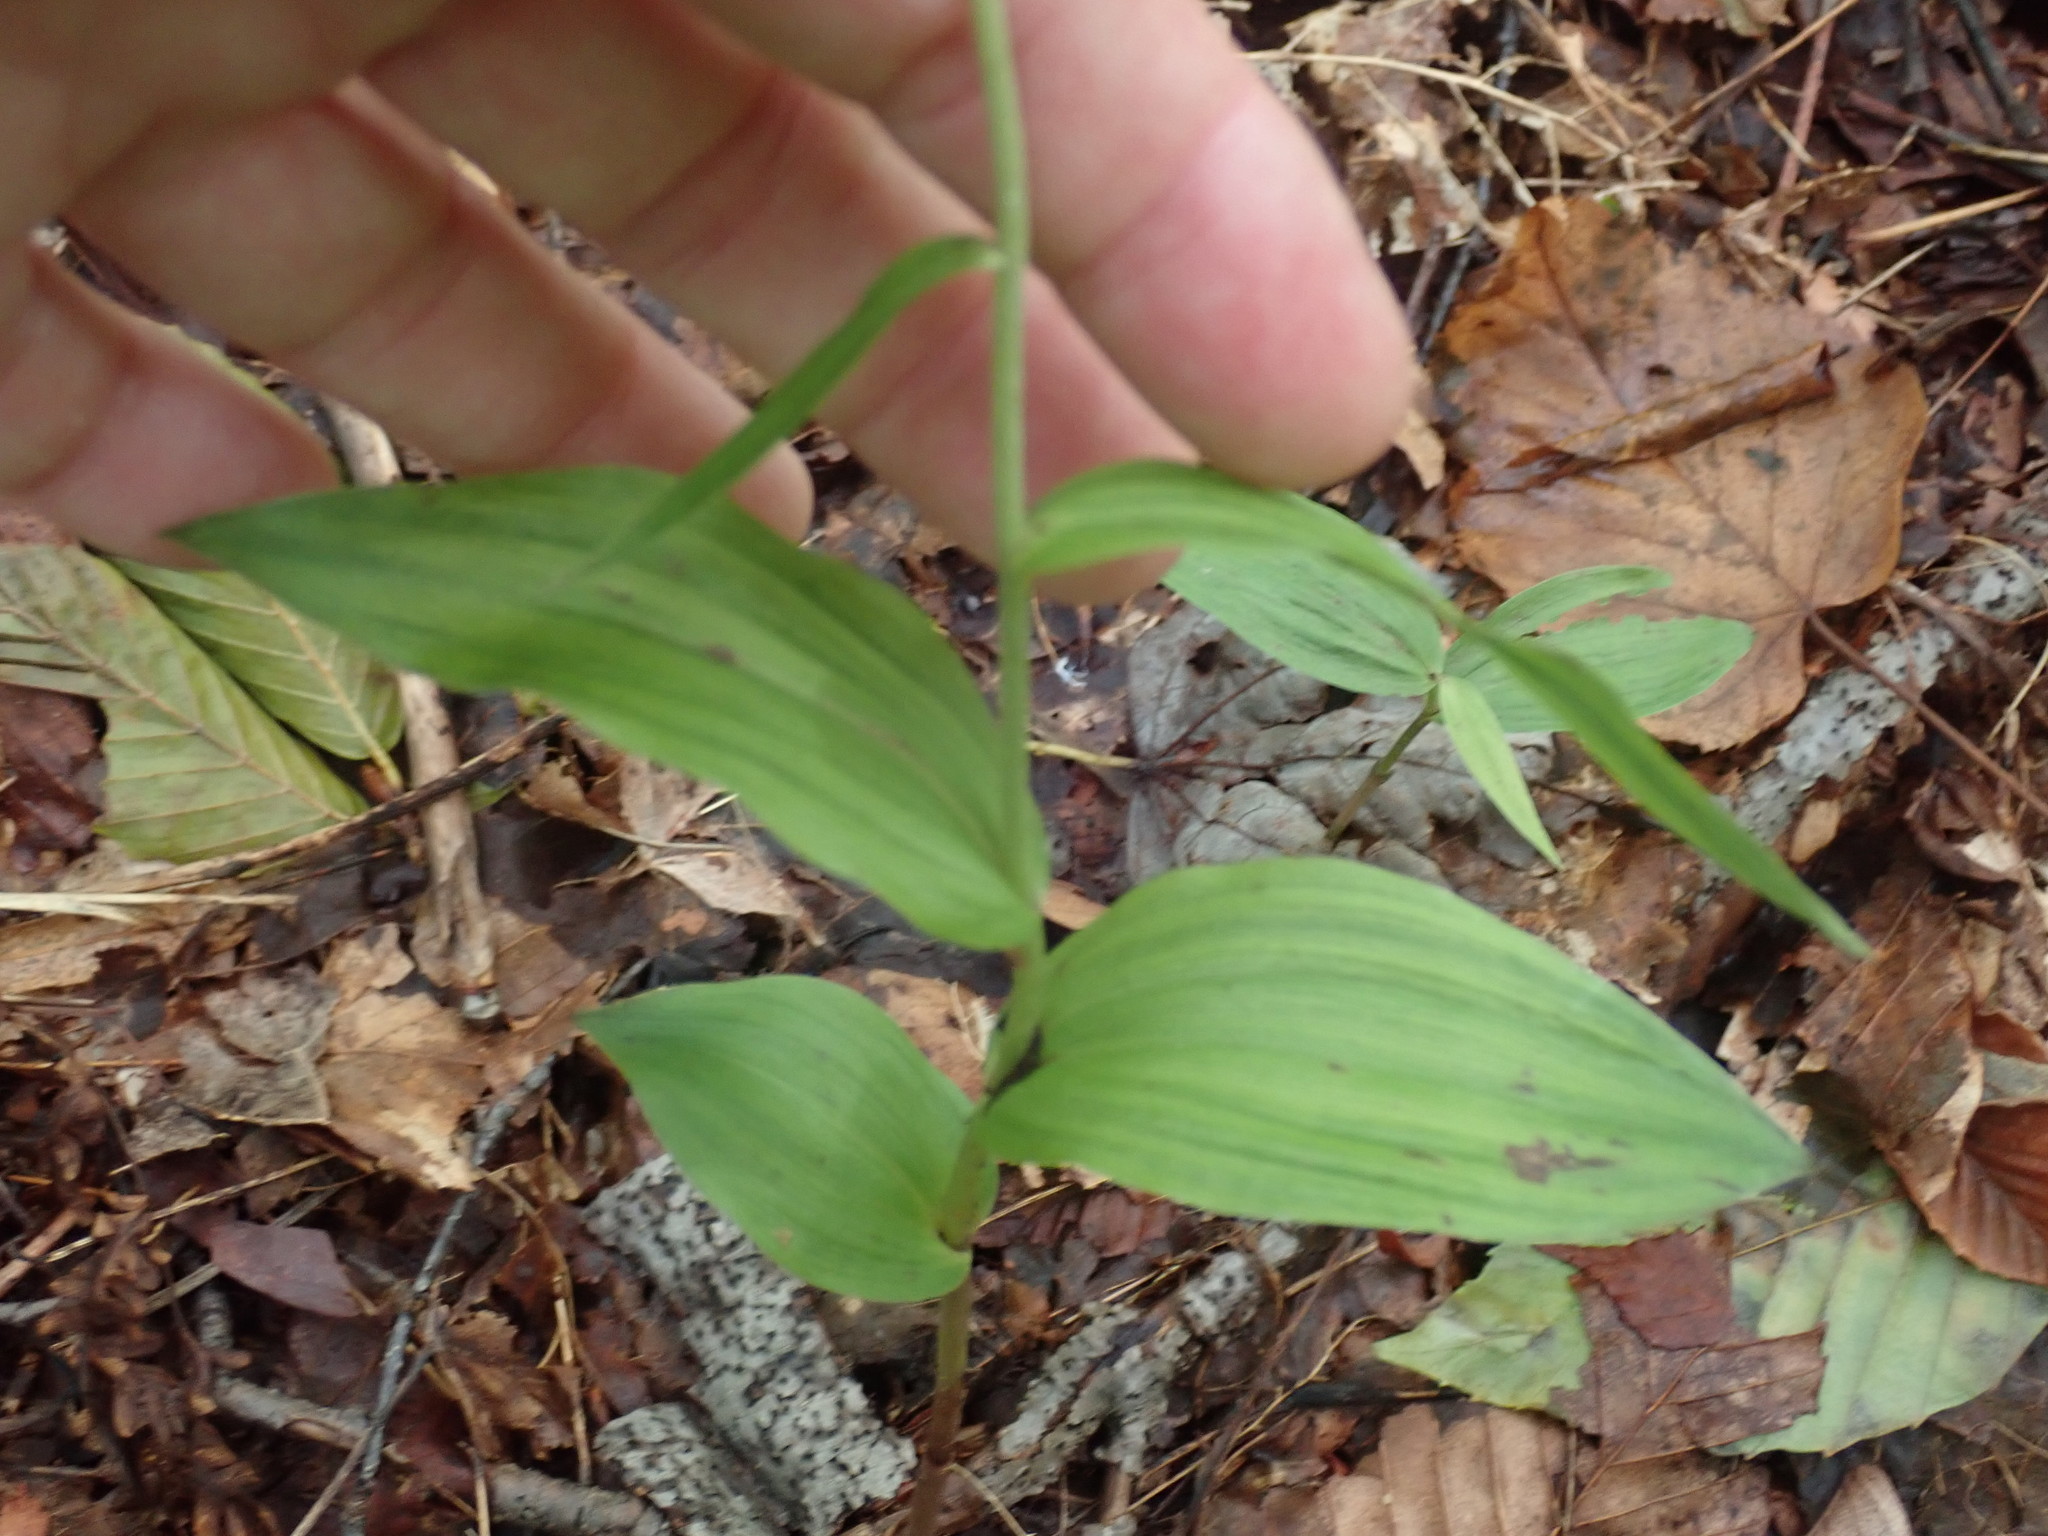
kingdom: Plantae
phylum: Tracheophyta
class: Liliopsida
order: Asparagales
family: Orchidaceae
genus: Epipactis
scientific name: Epipactis helleborine
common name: Broad-leaved helleborine
